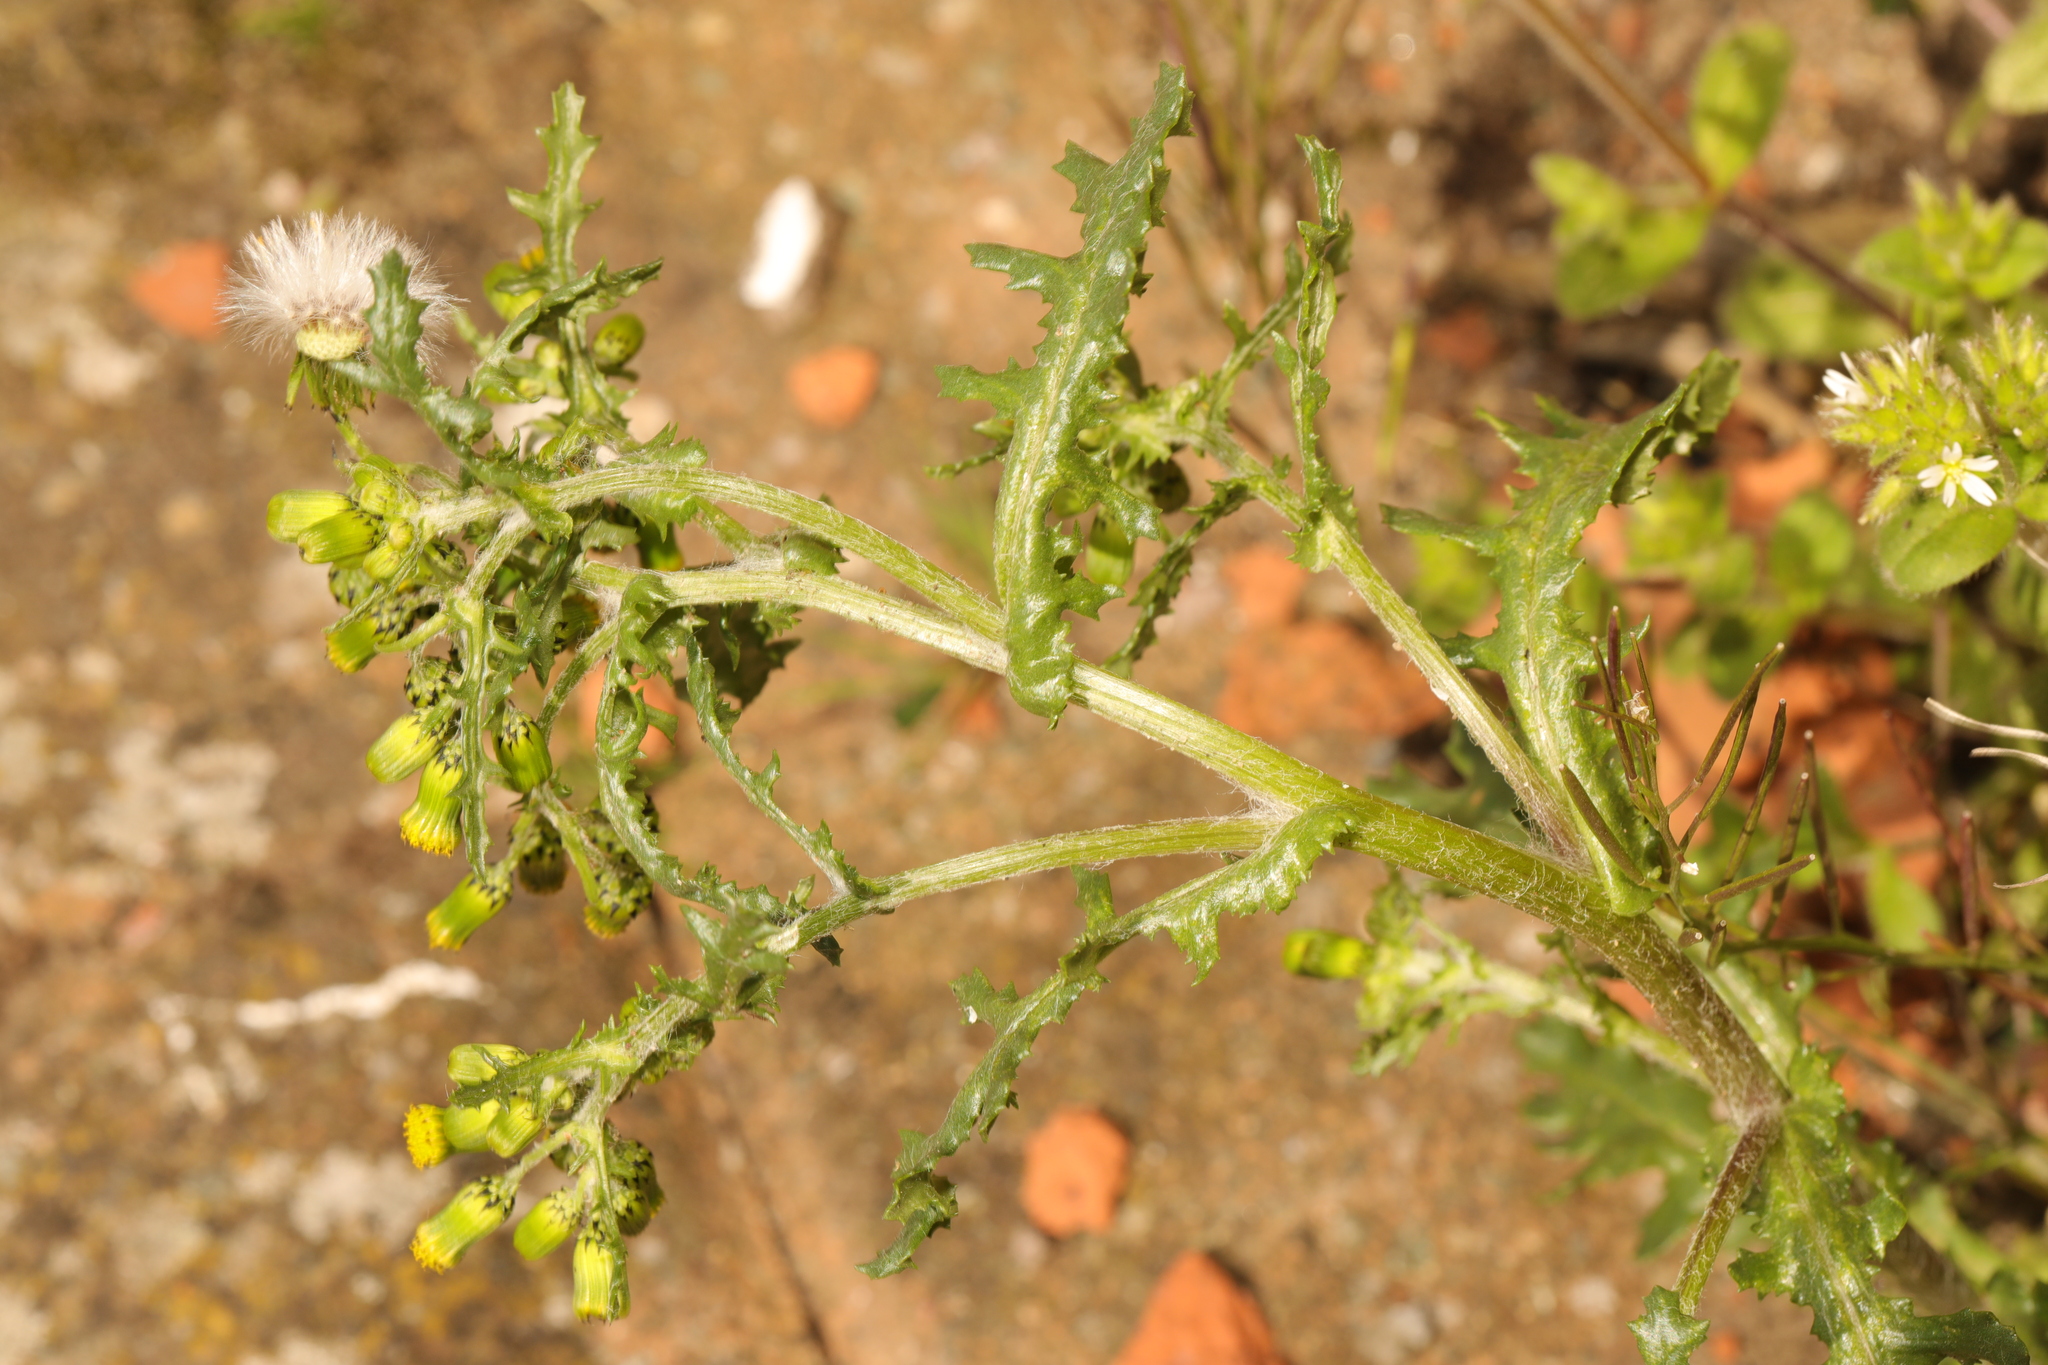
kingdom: Plantae
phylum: Tracheophyta
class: Magnoliopsida
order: Asterales
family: Asteraceae
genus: Senecio
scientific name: Senecio vulgaris
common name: Old-man-in-the-spring
